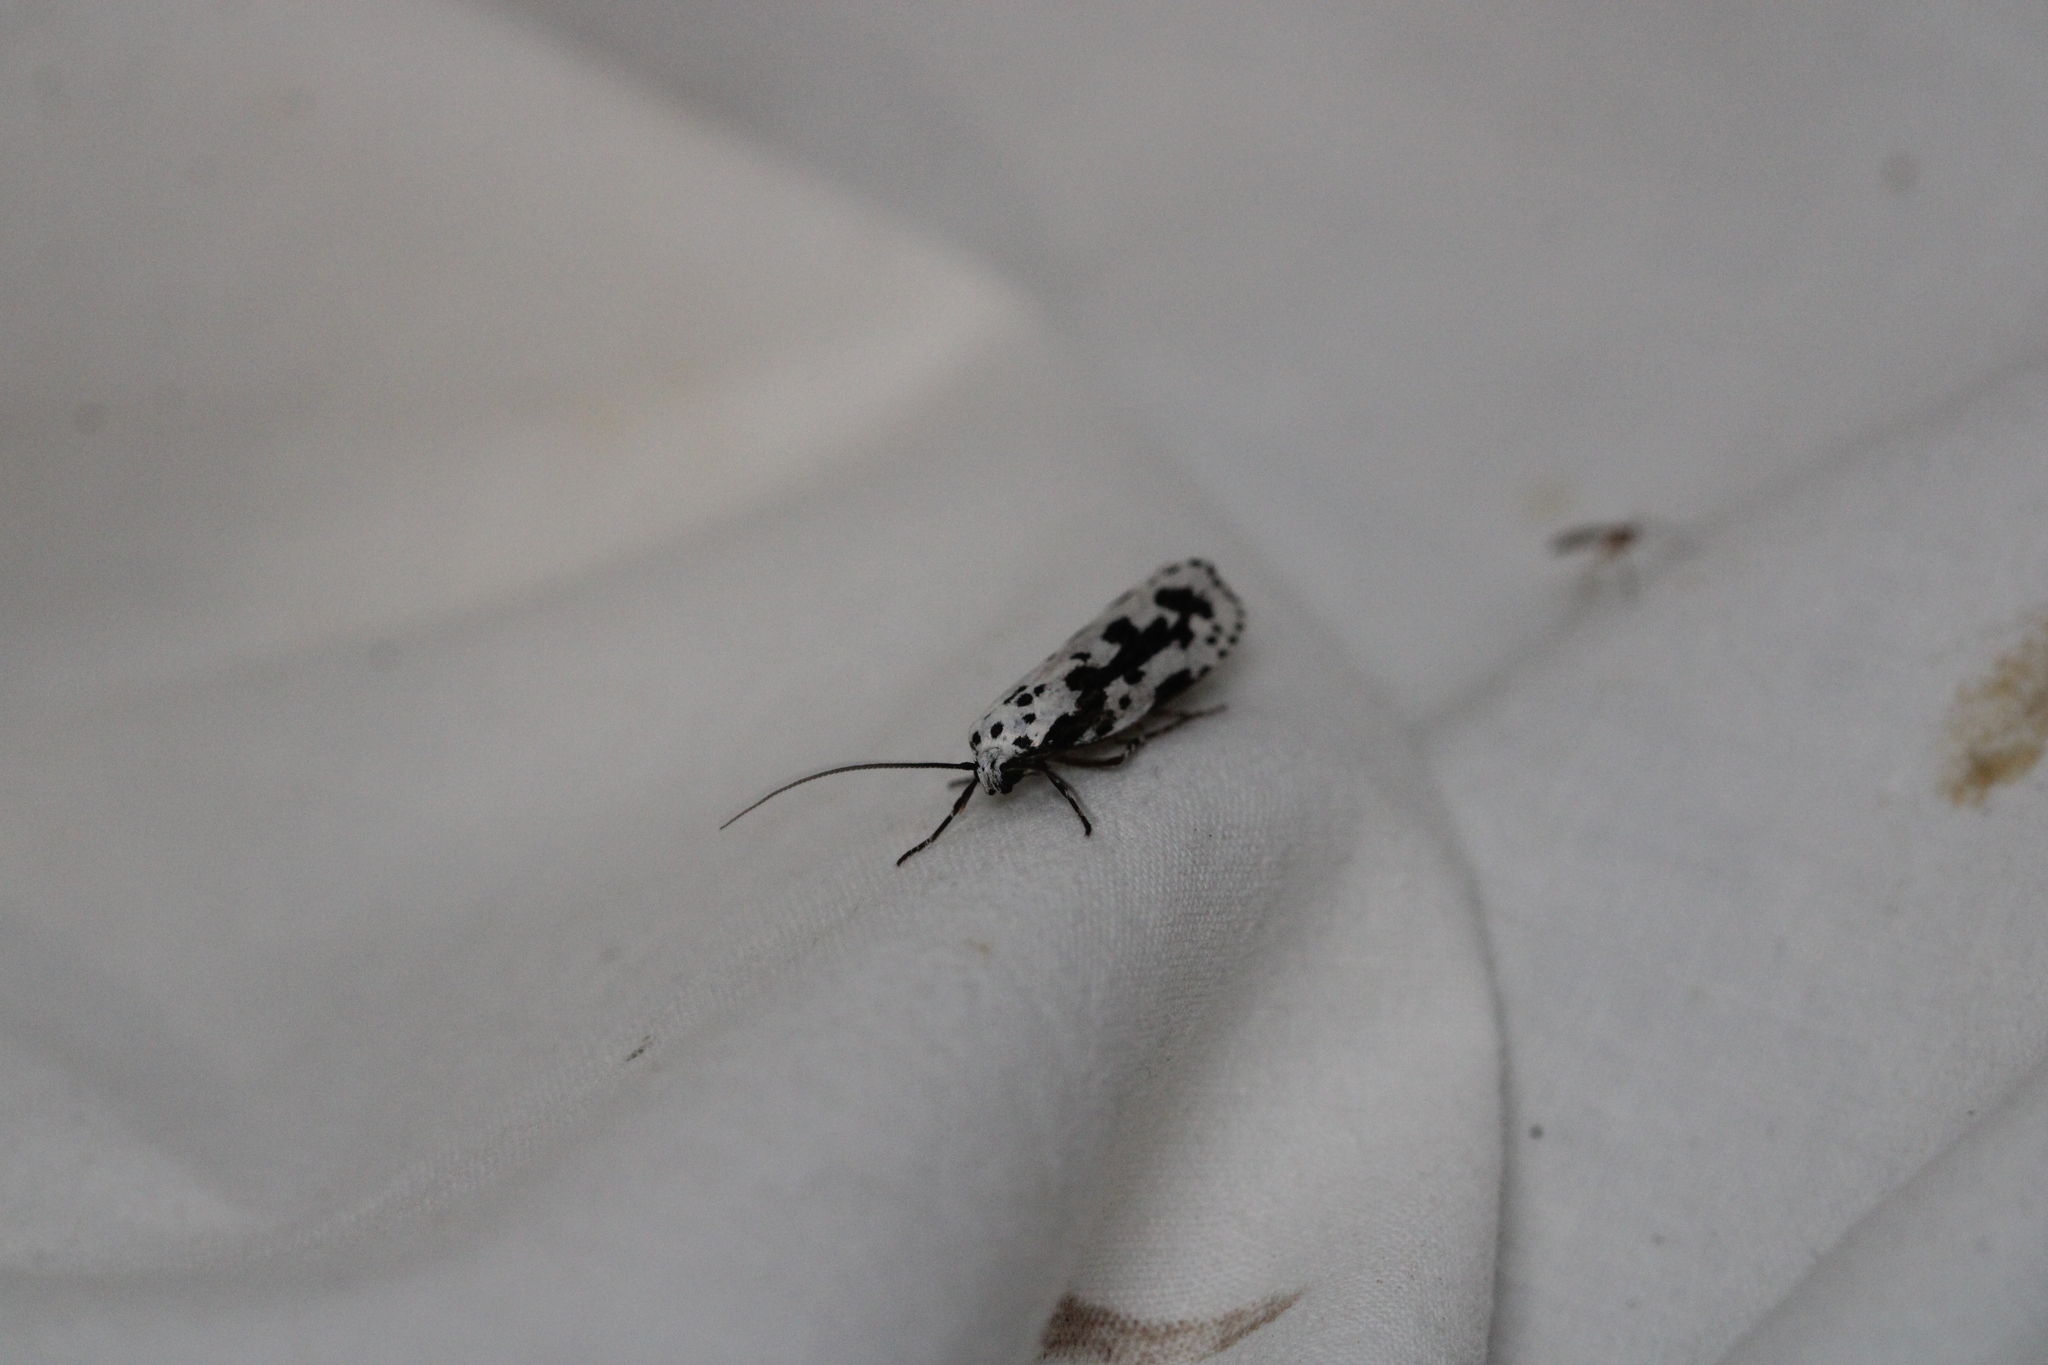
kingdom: Animalia
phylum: Arthropoda
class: Insecta
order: Lepidoptera
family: Ethmiidae
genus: Ethmia
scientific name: Ethmia pusiella
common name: Striped ermel
